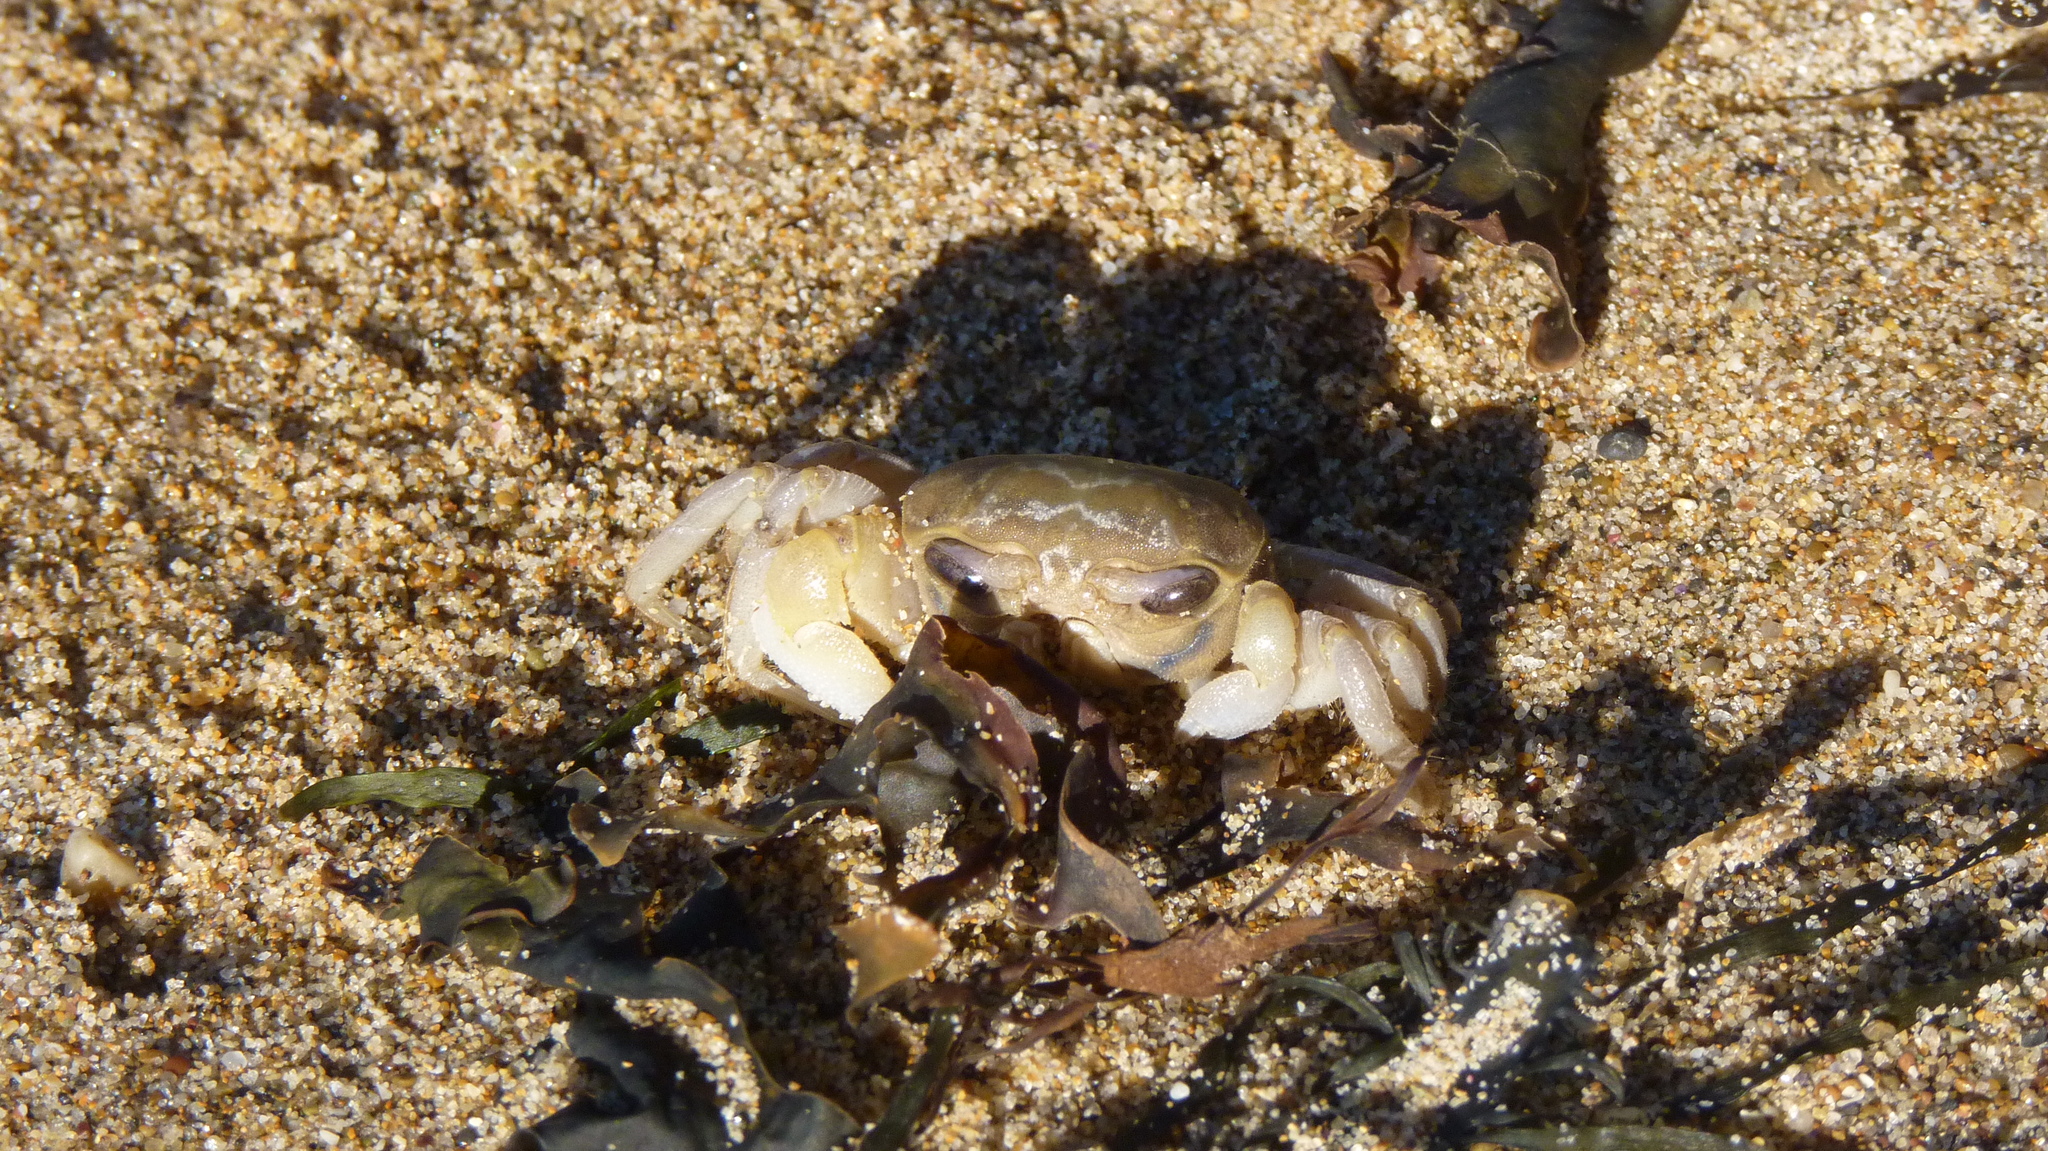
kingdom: Animalia
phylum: Arthropoda
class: Malacostraca
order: Decapoda
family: Ocypodidae
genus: Ocypode
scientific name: Ocypode cordimana
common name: Smooth-eyed ghost crab
